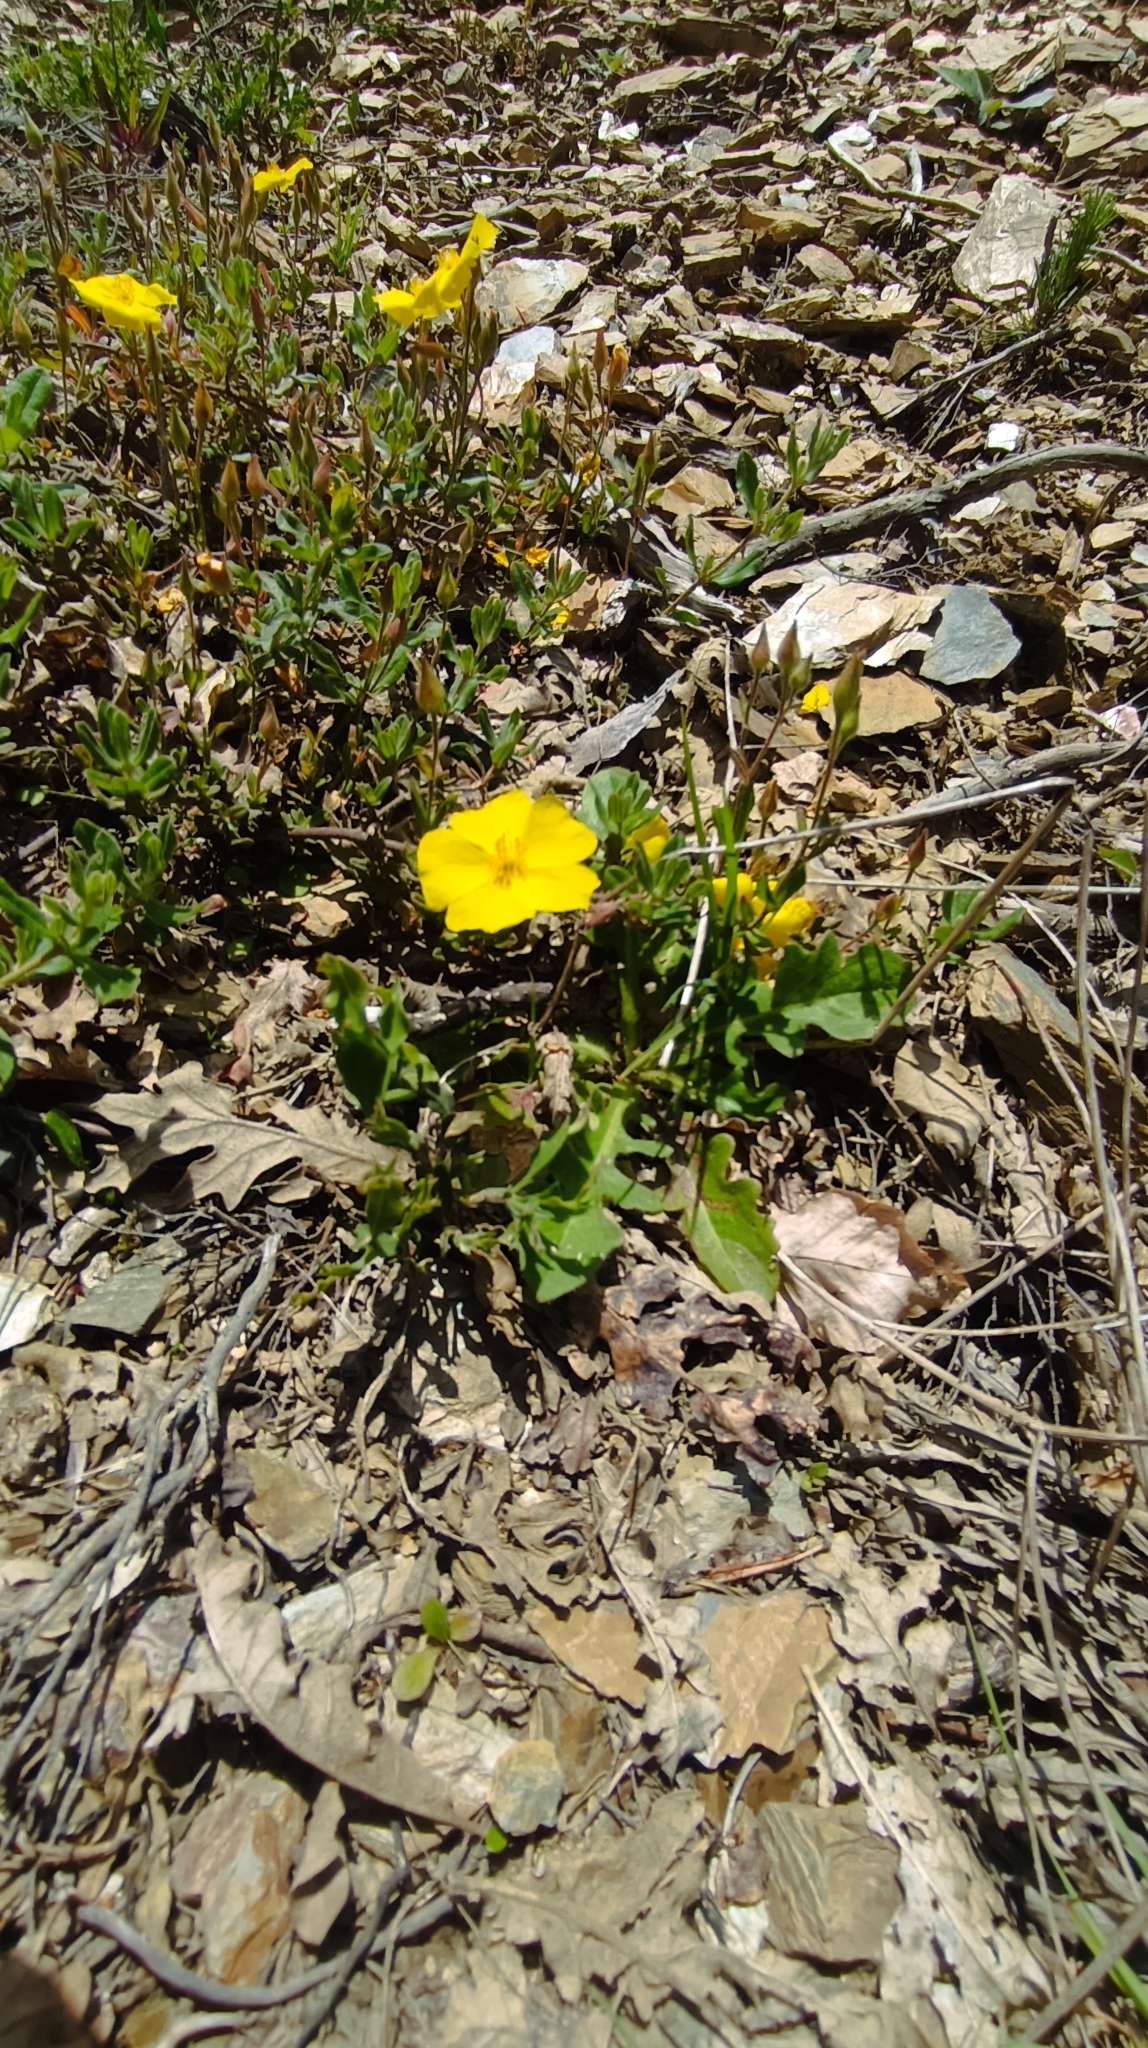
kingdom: Plantae
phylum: Tracheophyta
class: Magnoliopsida
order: Malvales
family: Cistaceae
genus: Halimium
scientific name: Halimium lasianthum
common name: Lisbon false sun-rose
